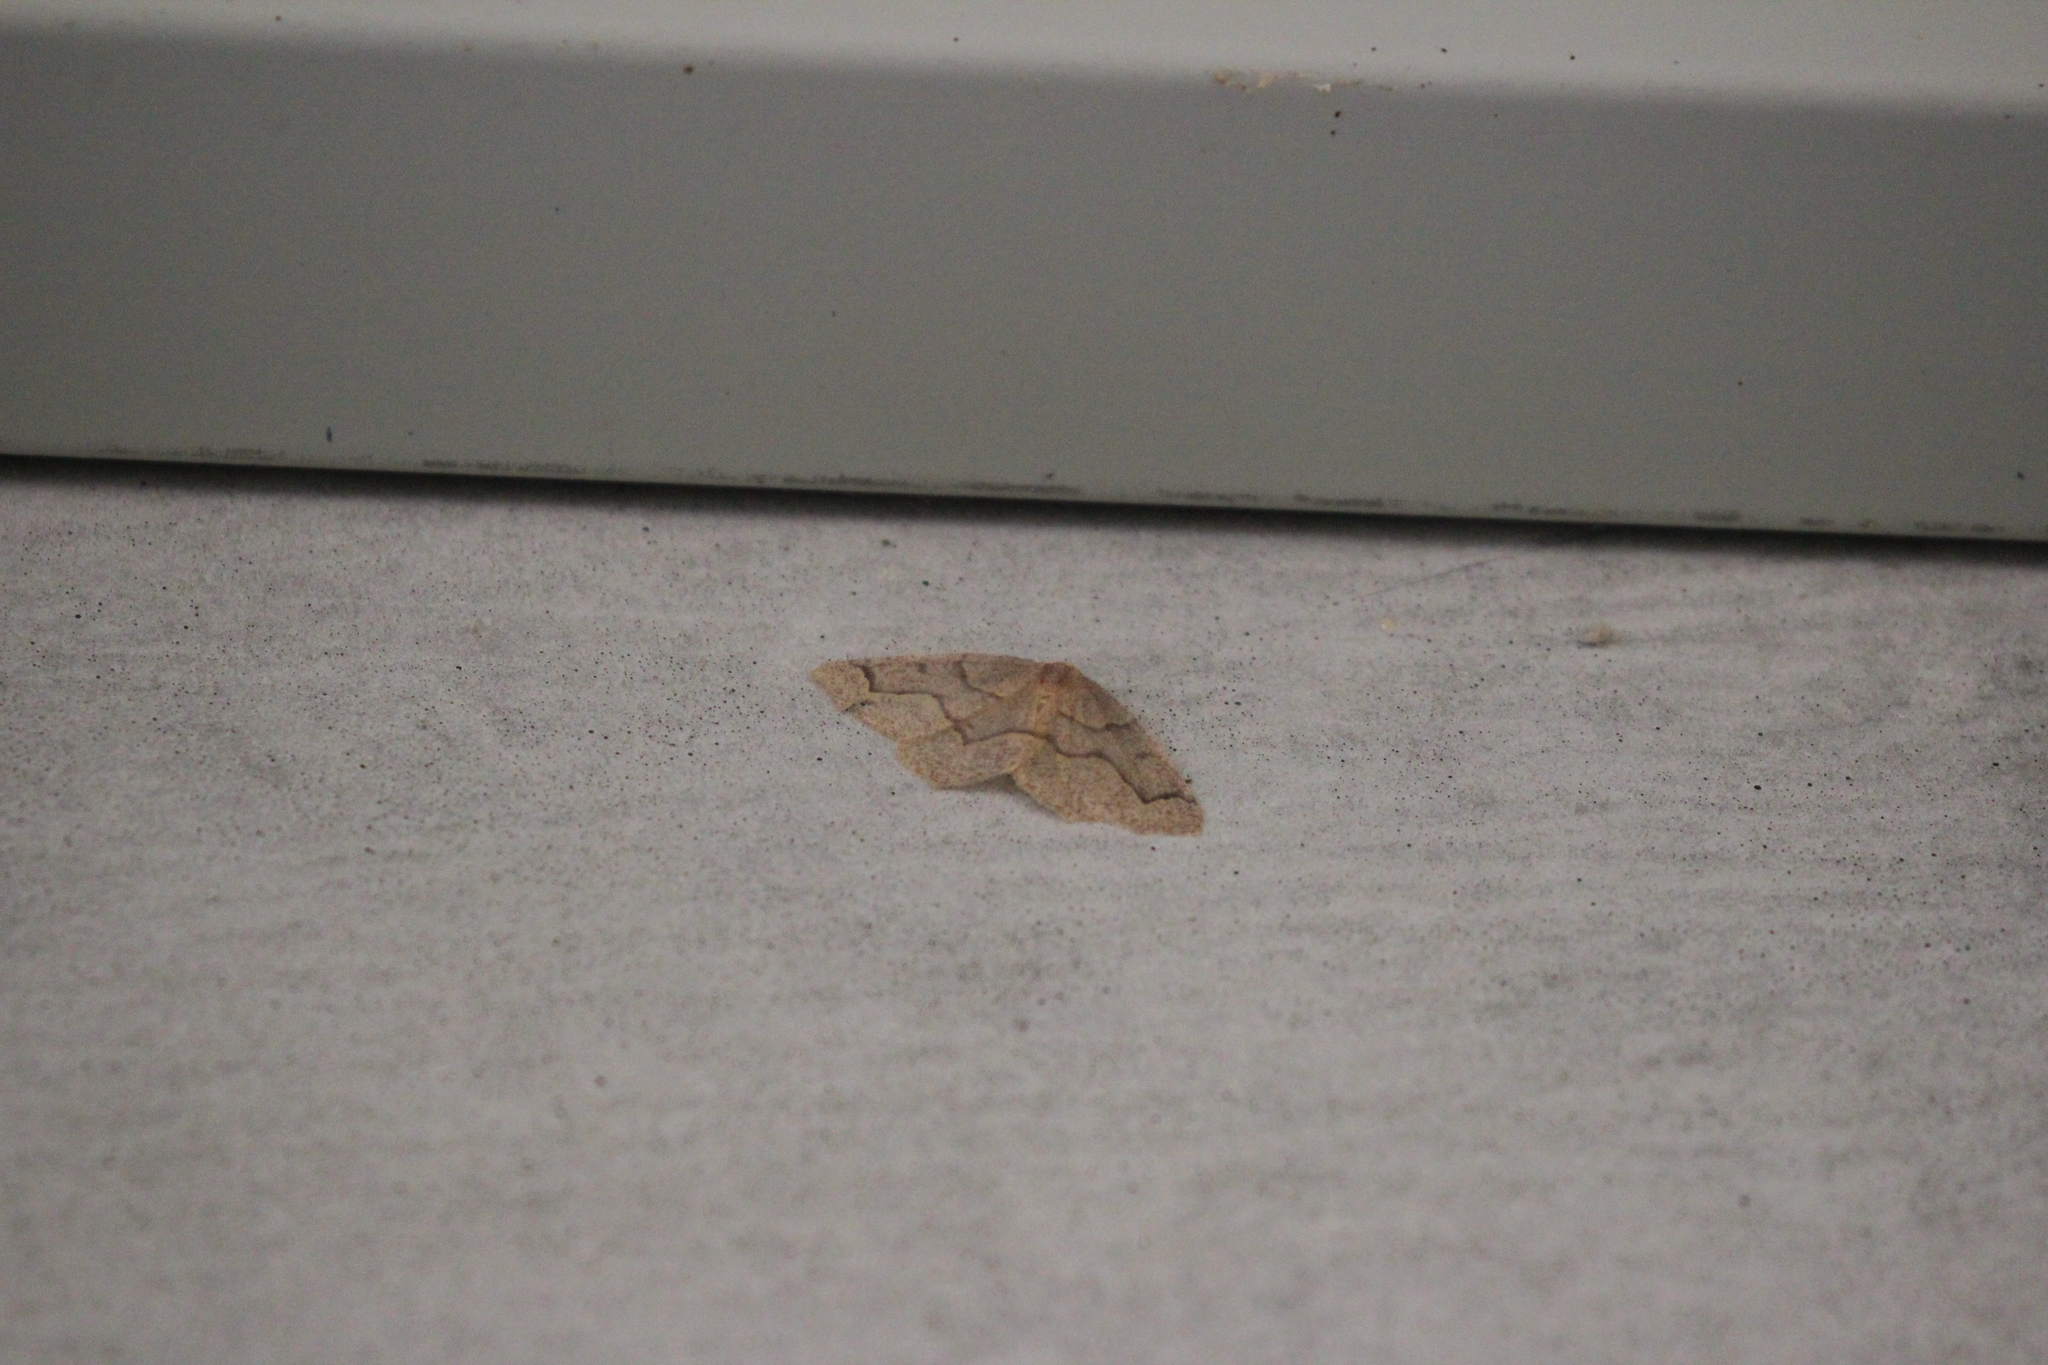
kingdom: Animalia
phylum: Arthropoda
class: Insecta
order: Lepidoptera
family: Geometridae
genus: Lambdina
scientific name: Lambdina fiscellaria
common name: Hemlock looper
